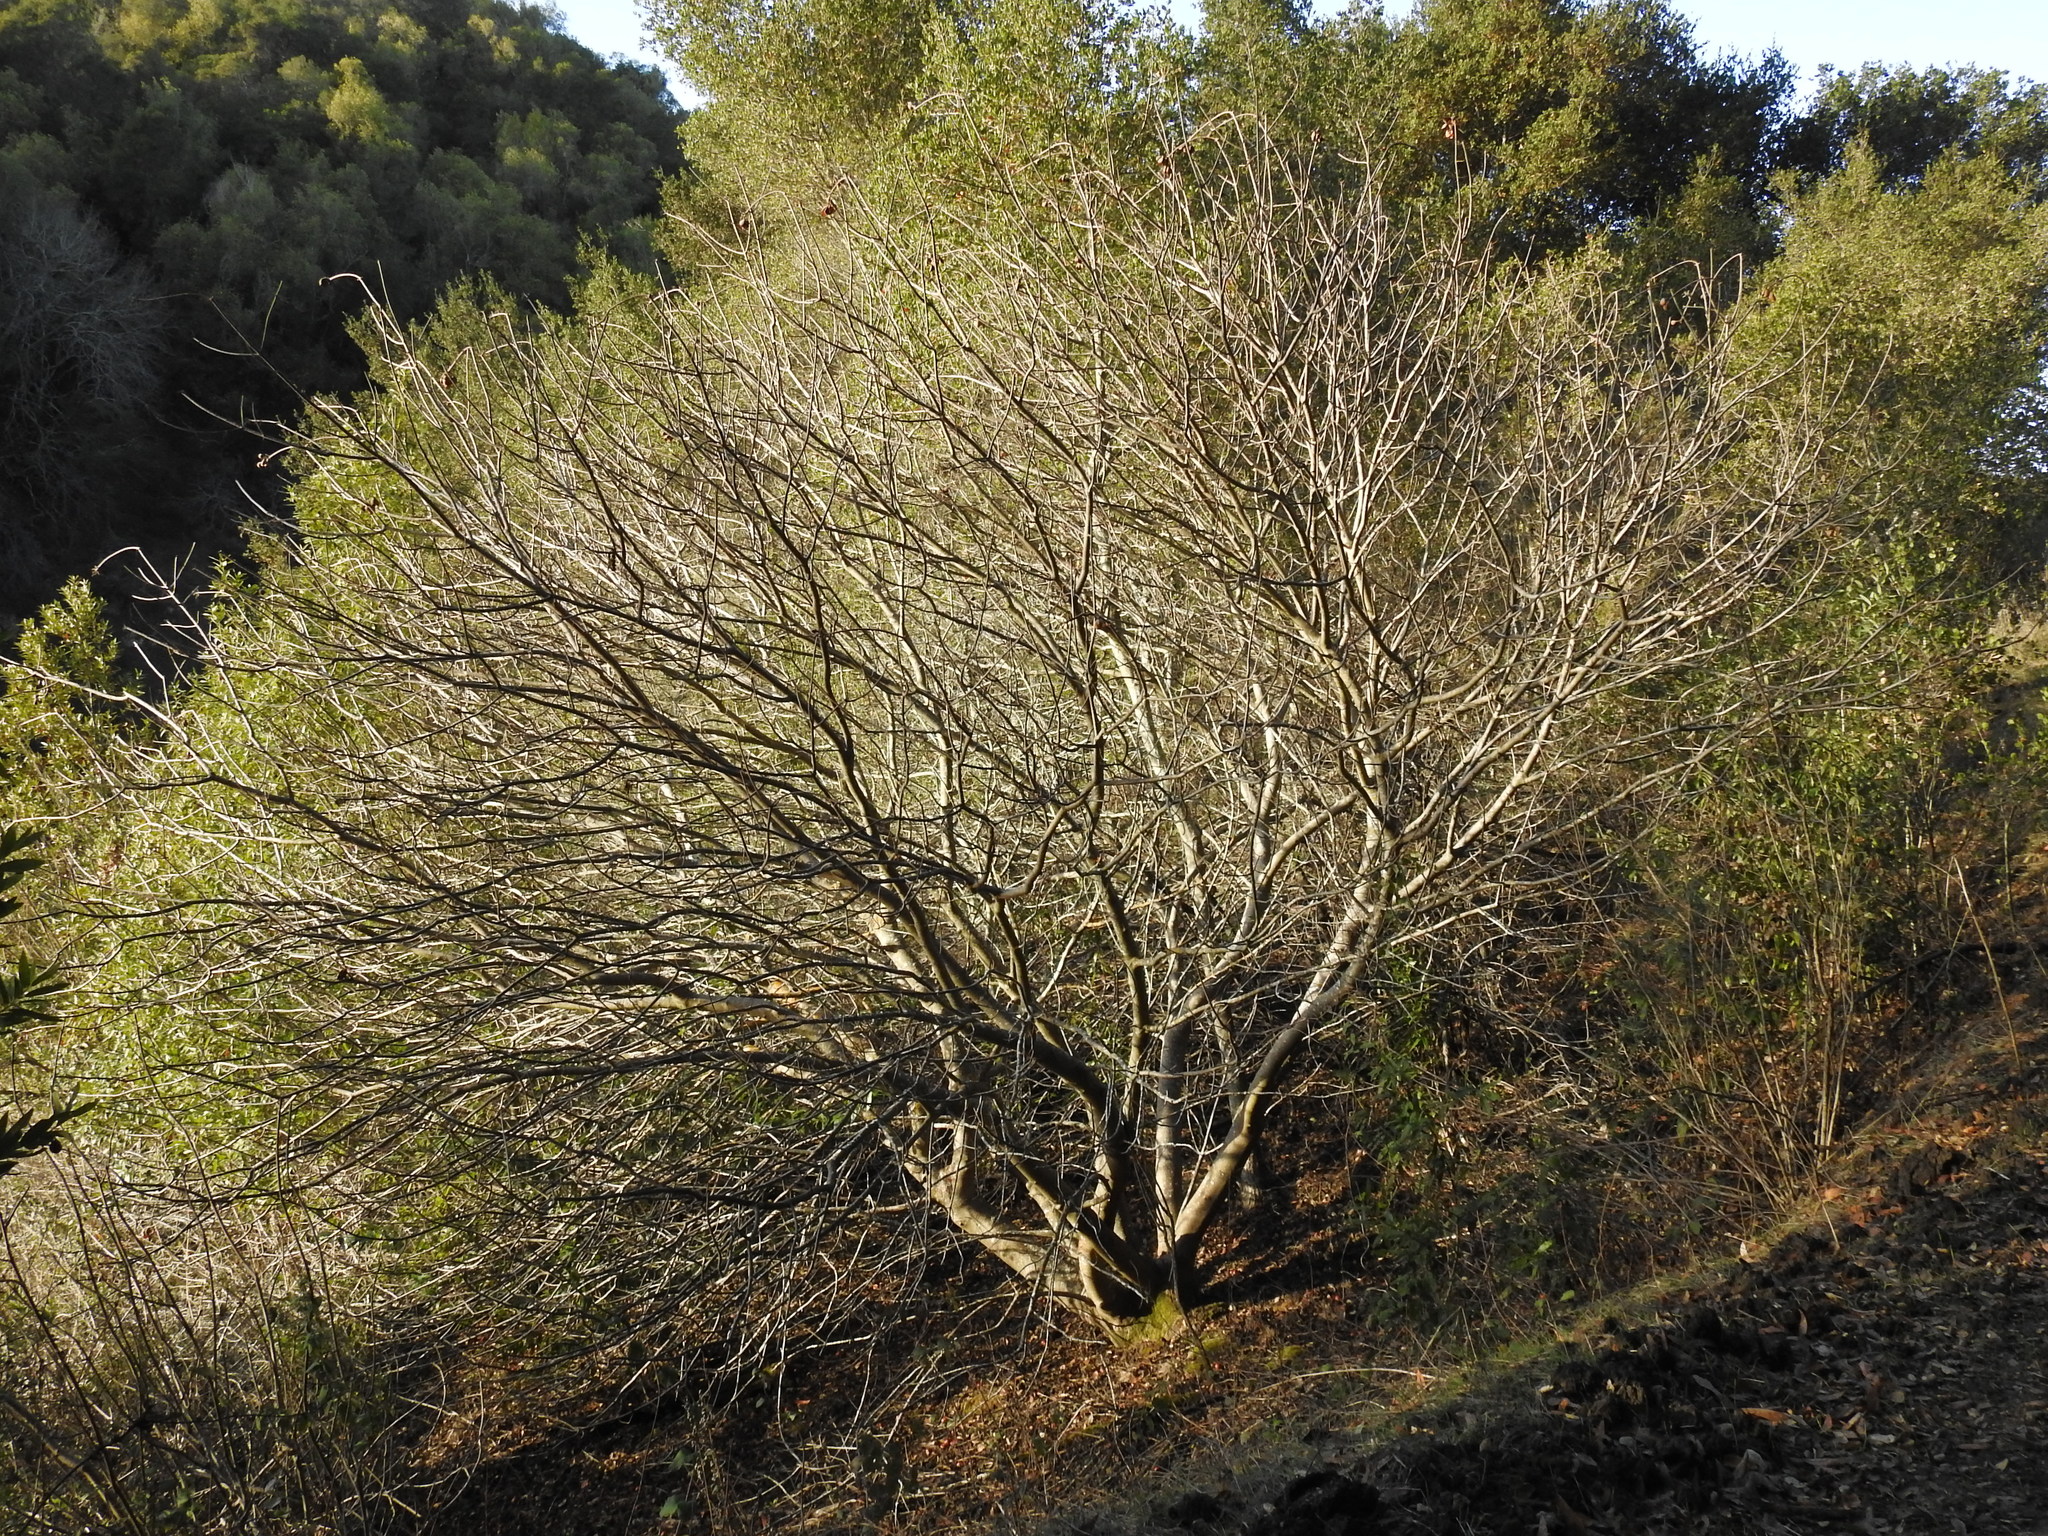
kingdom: Plantae
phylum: Tracheophyta
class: Magnoliopsida
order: Sapindales
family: Sapindaceae
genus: Aesculus
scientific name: Aesculus californica
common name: California buckeye
